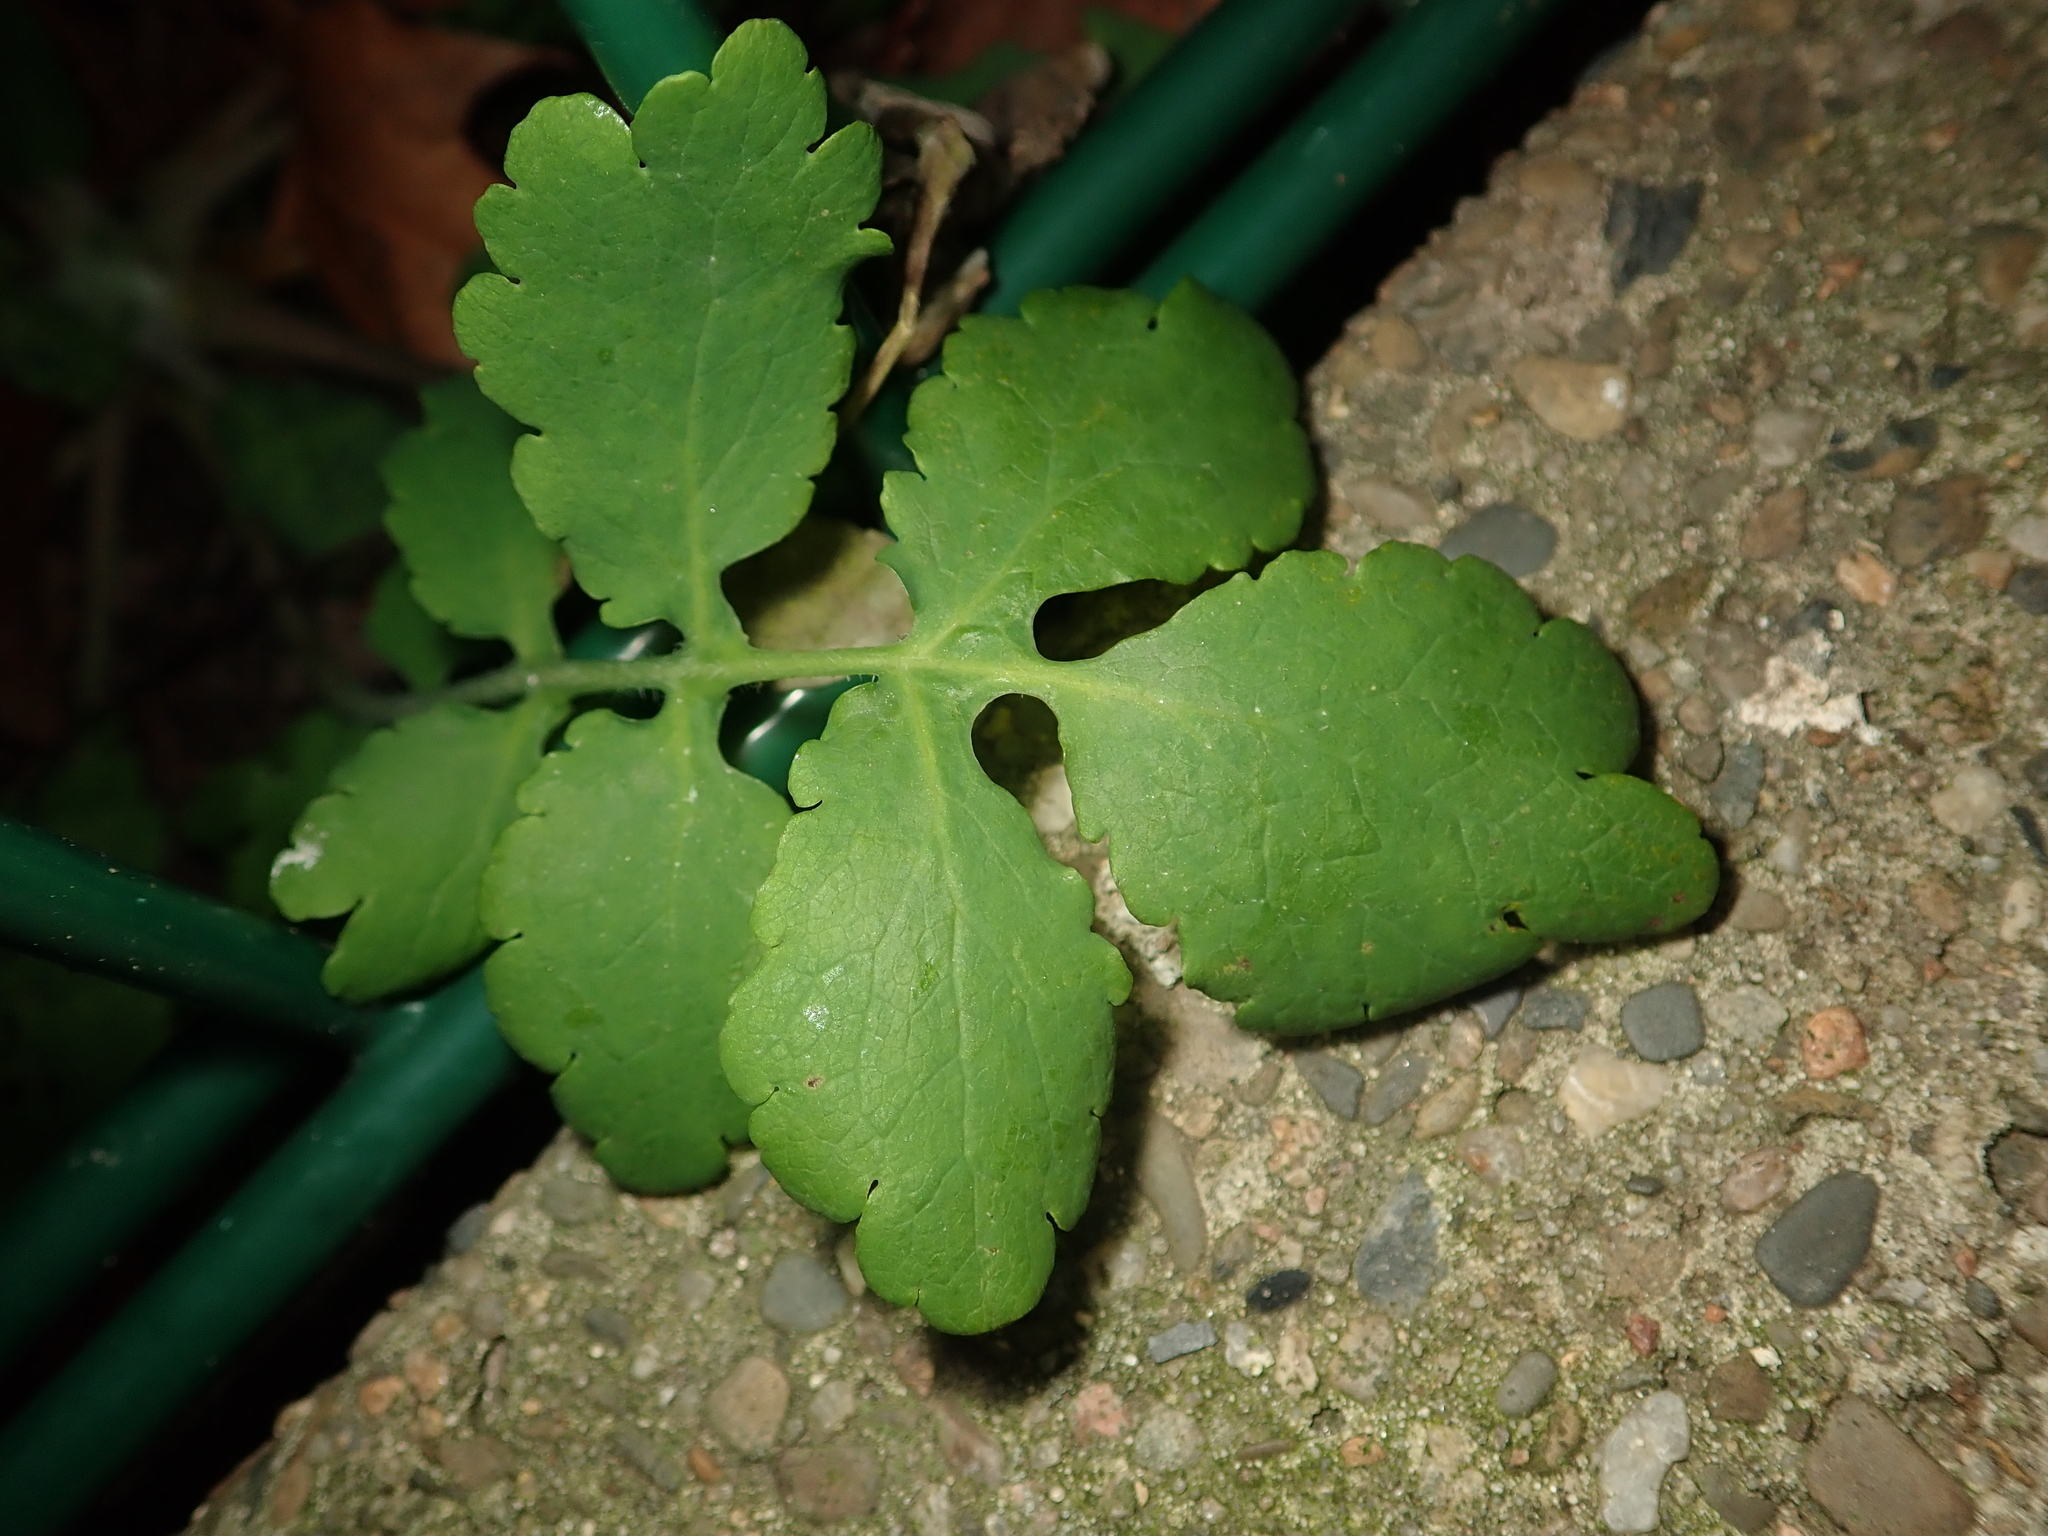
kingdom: Plantae
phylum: Tracheophyta
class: Magnoliopsida
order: Ranunculales
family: Papaveraceae
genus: Chelidonium
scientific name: Chelidonium majus
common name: Greater celandine
